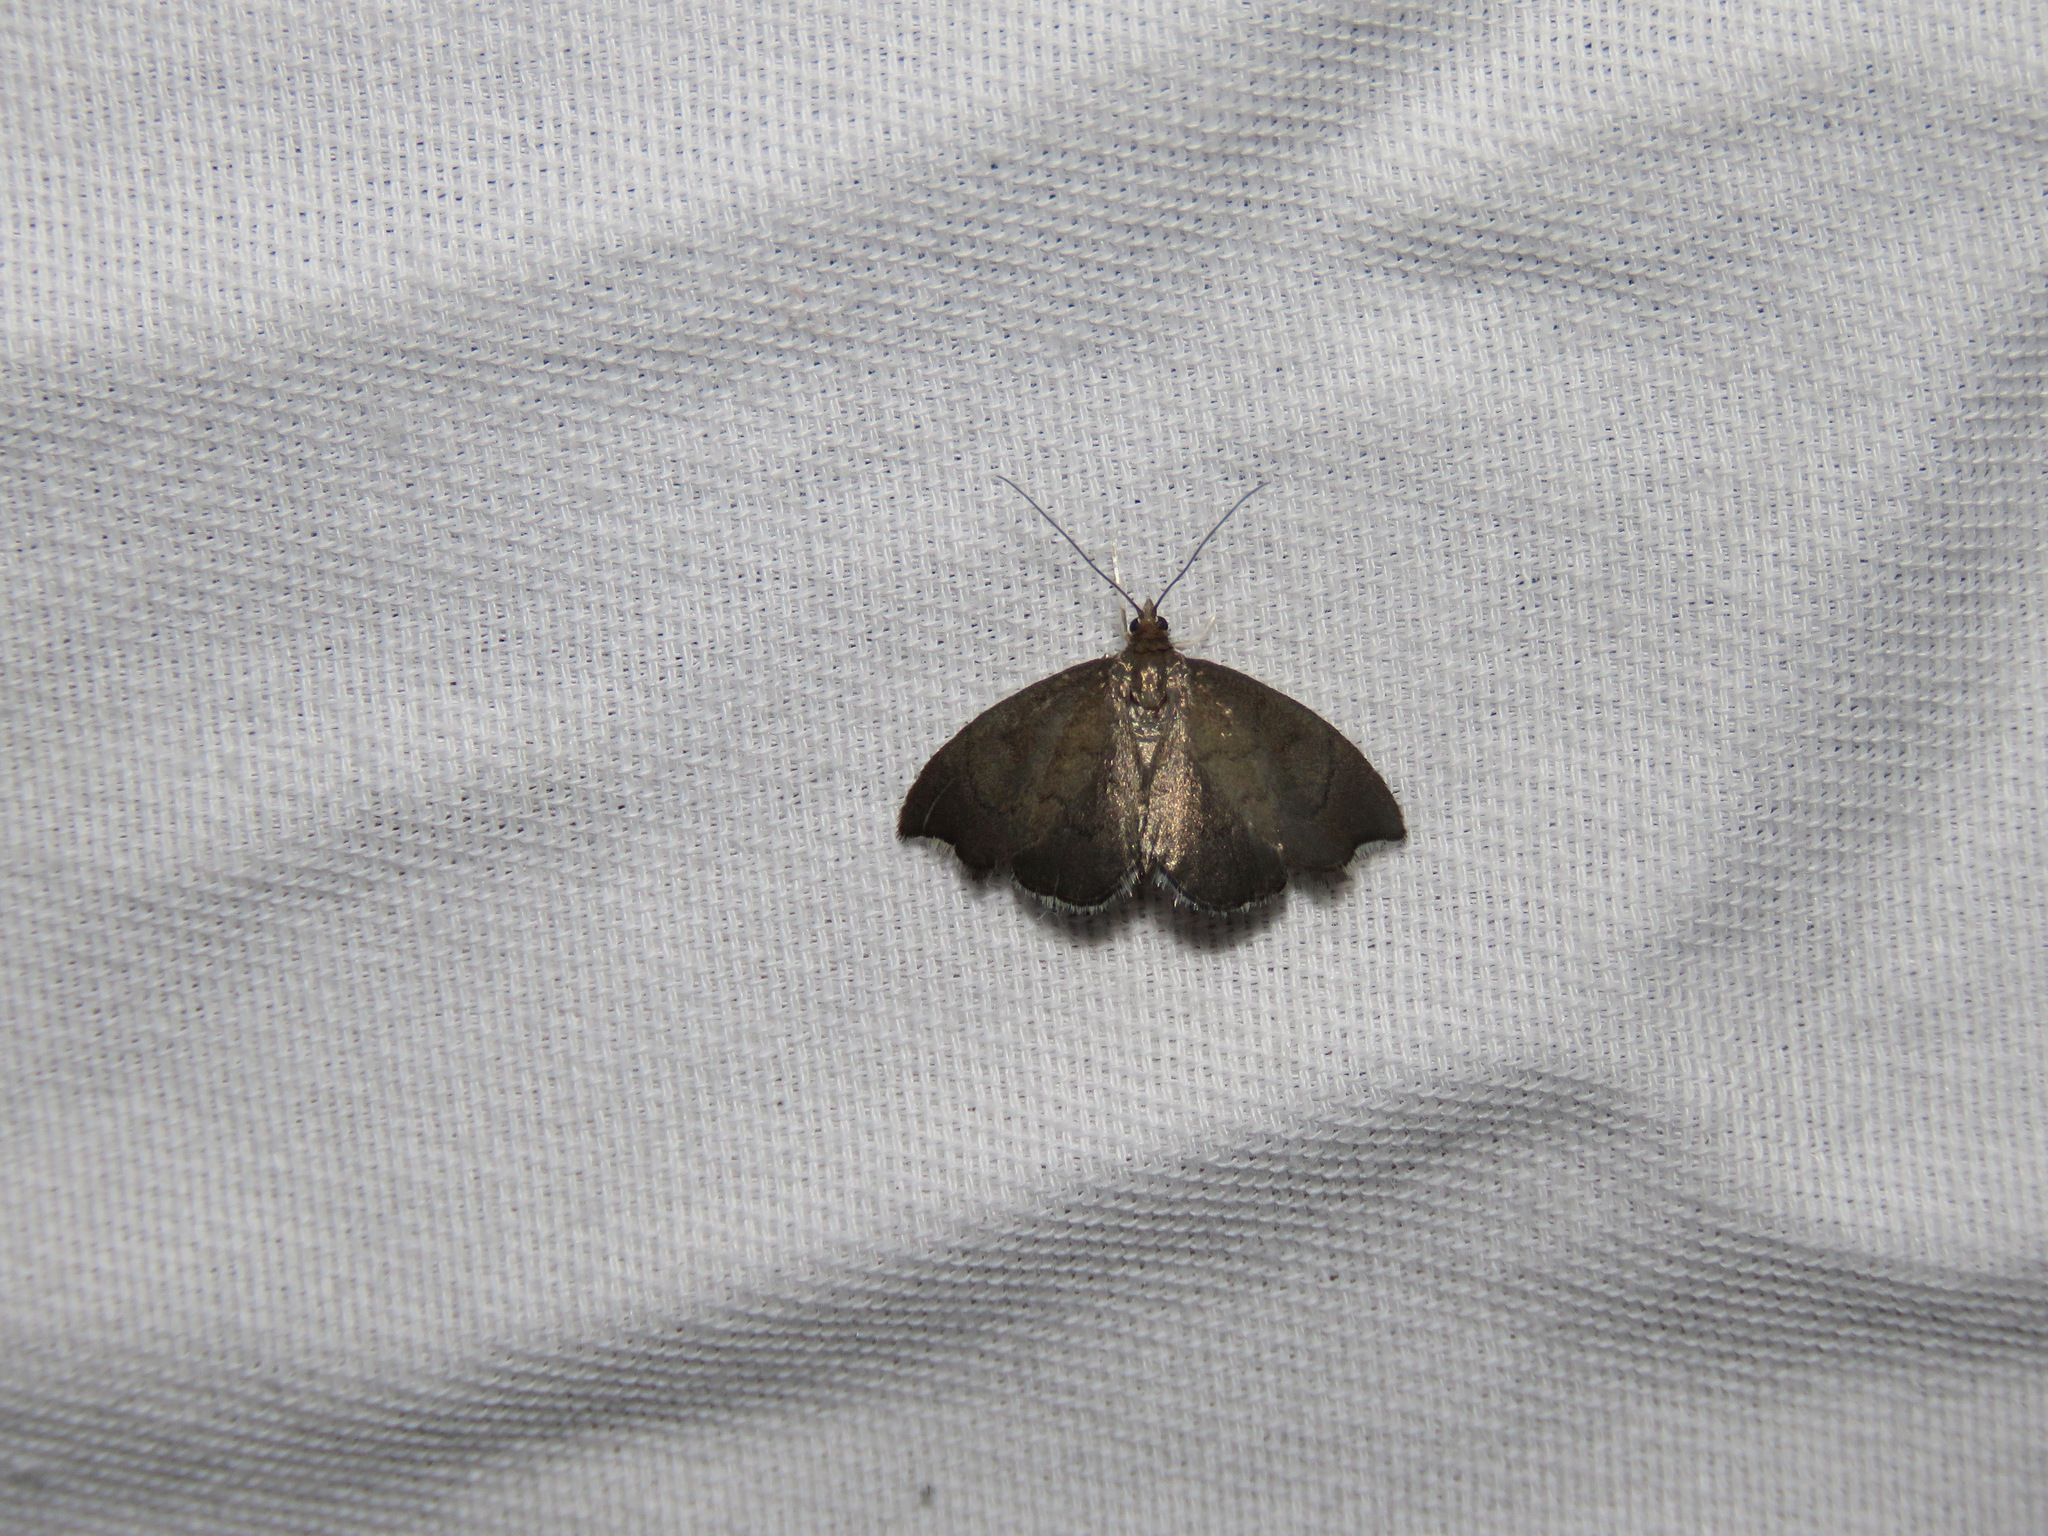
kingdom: Animalia
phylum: Arthropoda
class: Insecta
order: Lepidoptera
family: Crambidae
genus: Perispasta
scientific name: Perispasta caeculalis
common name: Titian peale's moth
